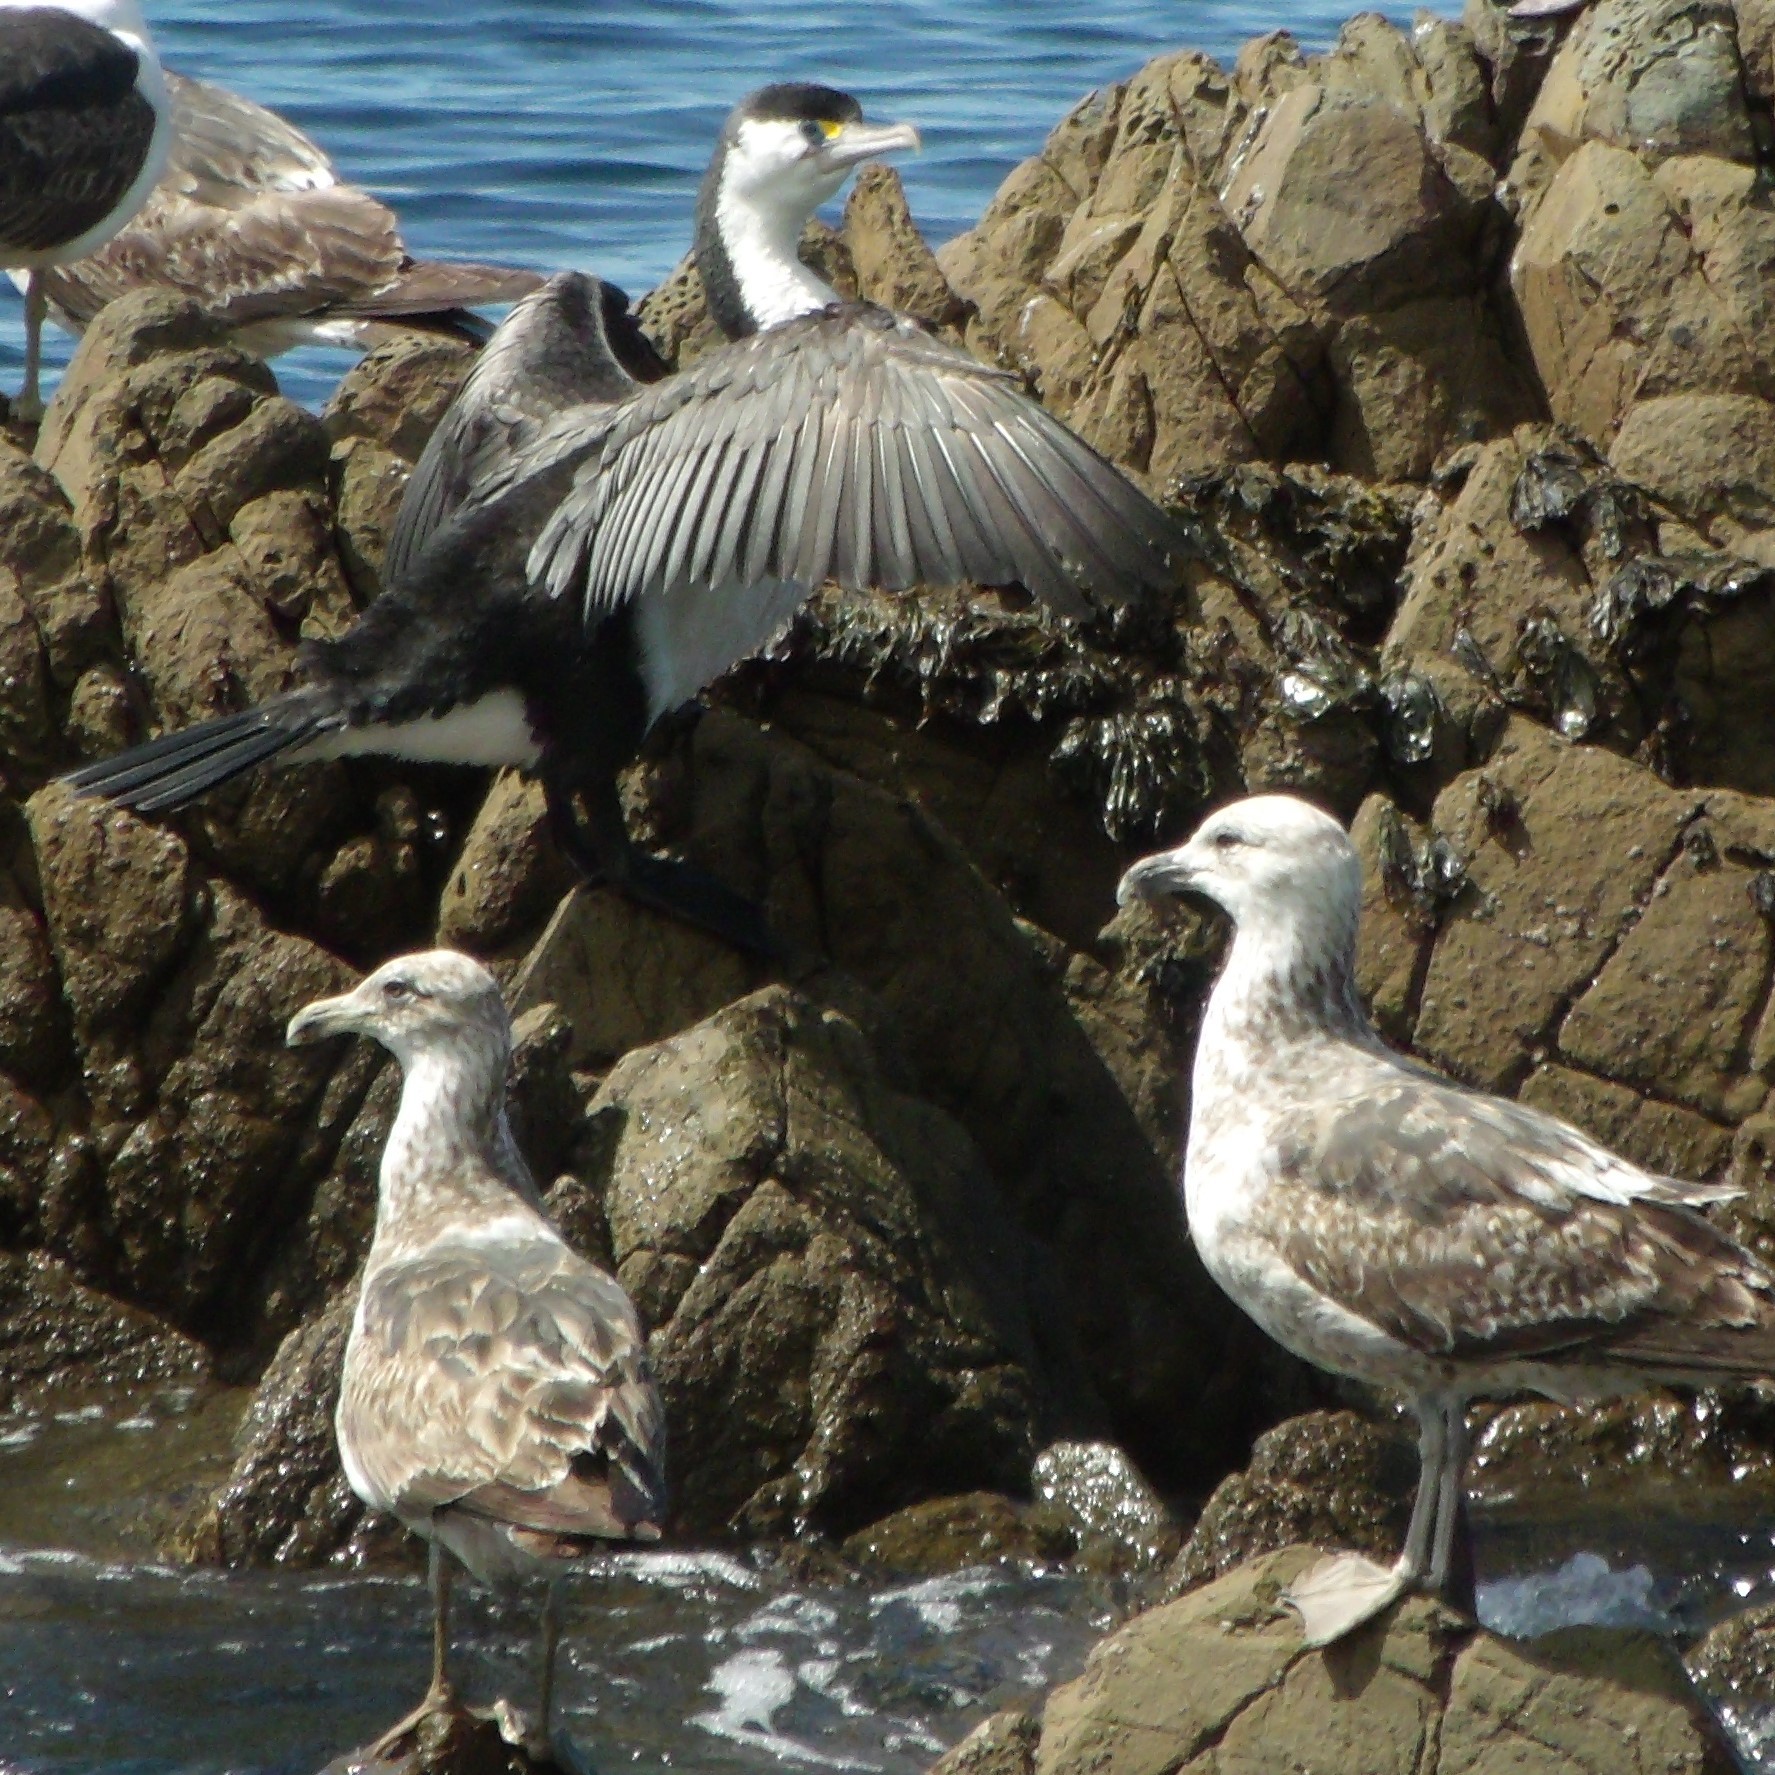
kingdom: Animalia
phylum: Chordata
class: Aves
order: Suliformes
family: Phalacrocoracidae
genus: Phalacrocorax
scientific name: Phalacrocorax varius
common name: Pied cormorant
